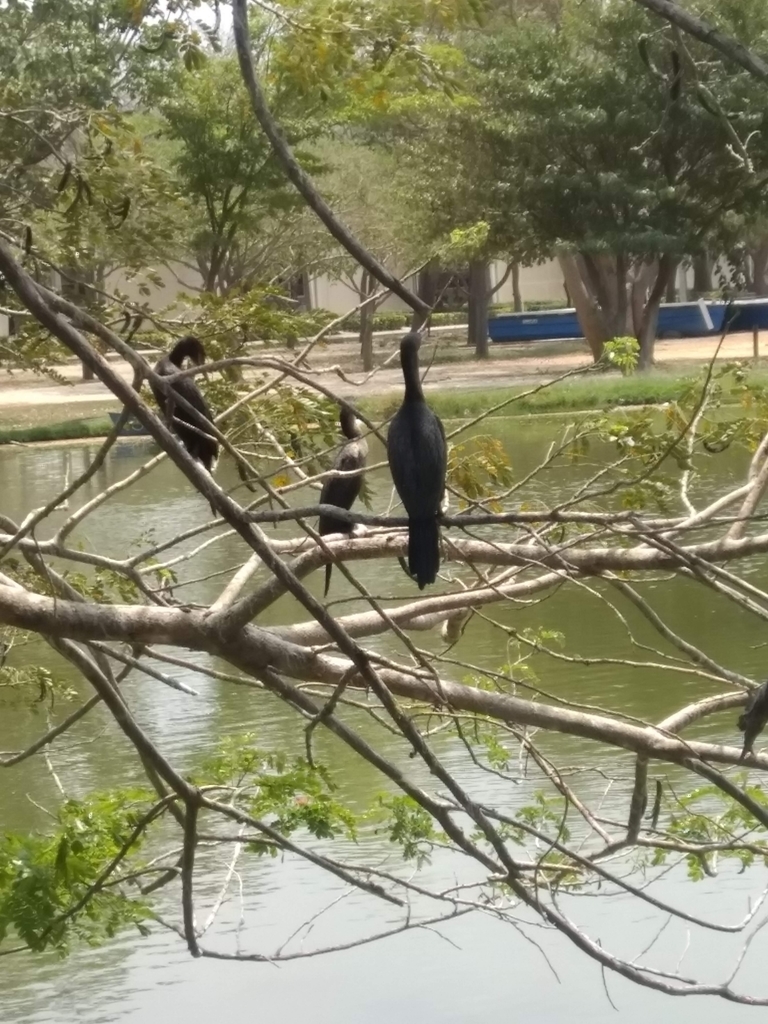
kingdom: Animalia
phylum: Chordata
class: Aves
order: Suliformes
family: Phalacrocoracidae
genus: Phalacrocorax
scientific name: Phalacrocorax brasilianus
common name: Neotropic cormorant
